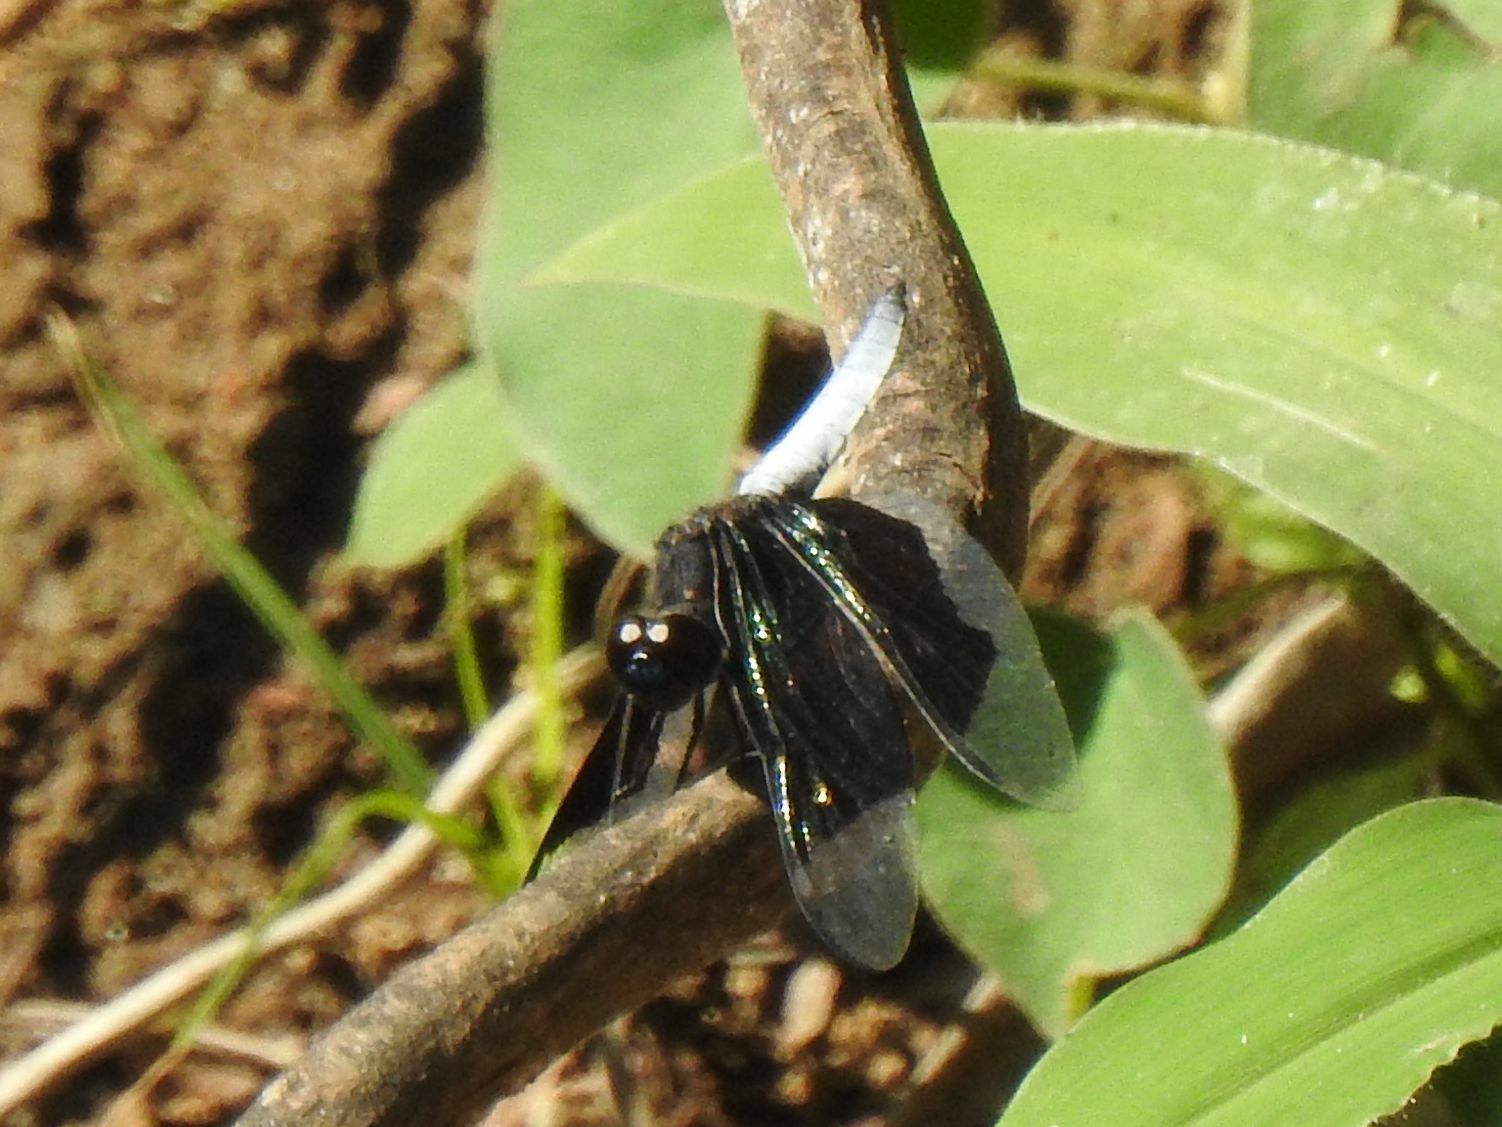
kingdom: Animalia
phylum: Arthropoda
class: Insecta
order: Odonata
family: Libellulidae
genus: Palpopleura
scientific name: Palpopleura lucia
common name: Lucia widow
